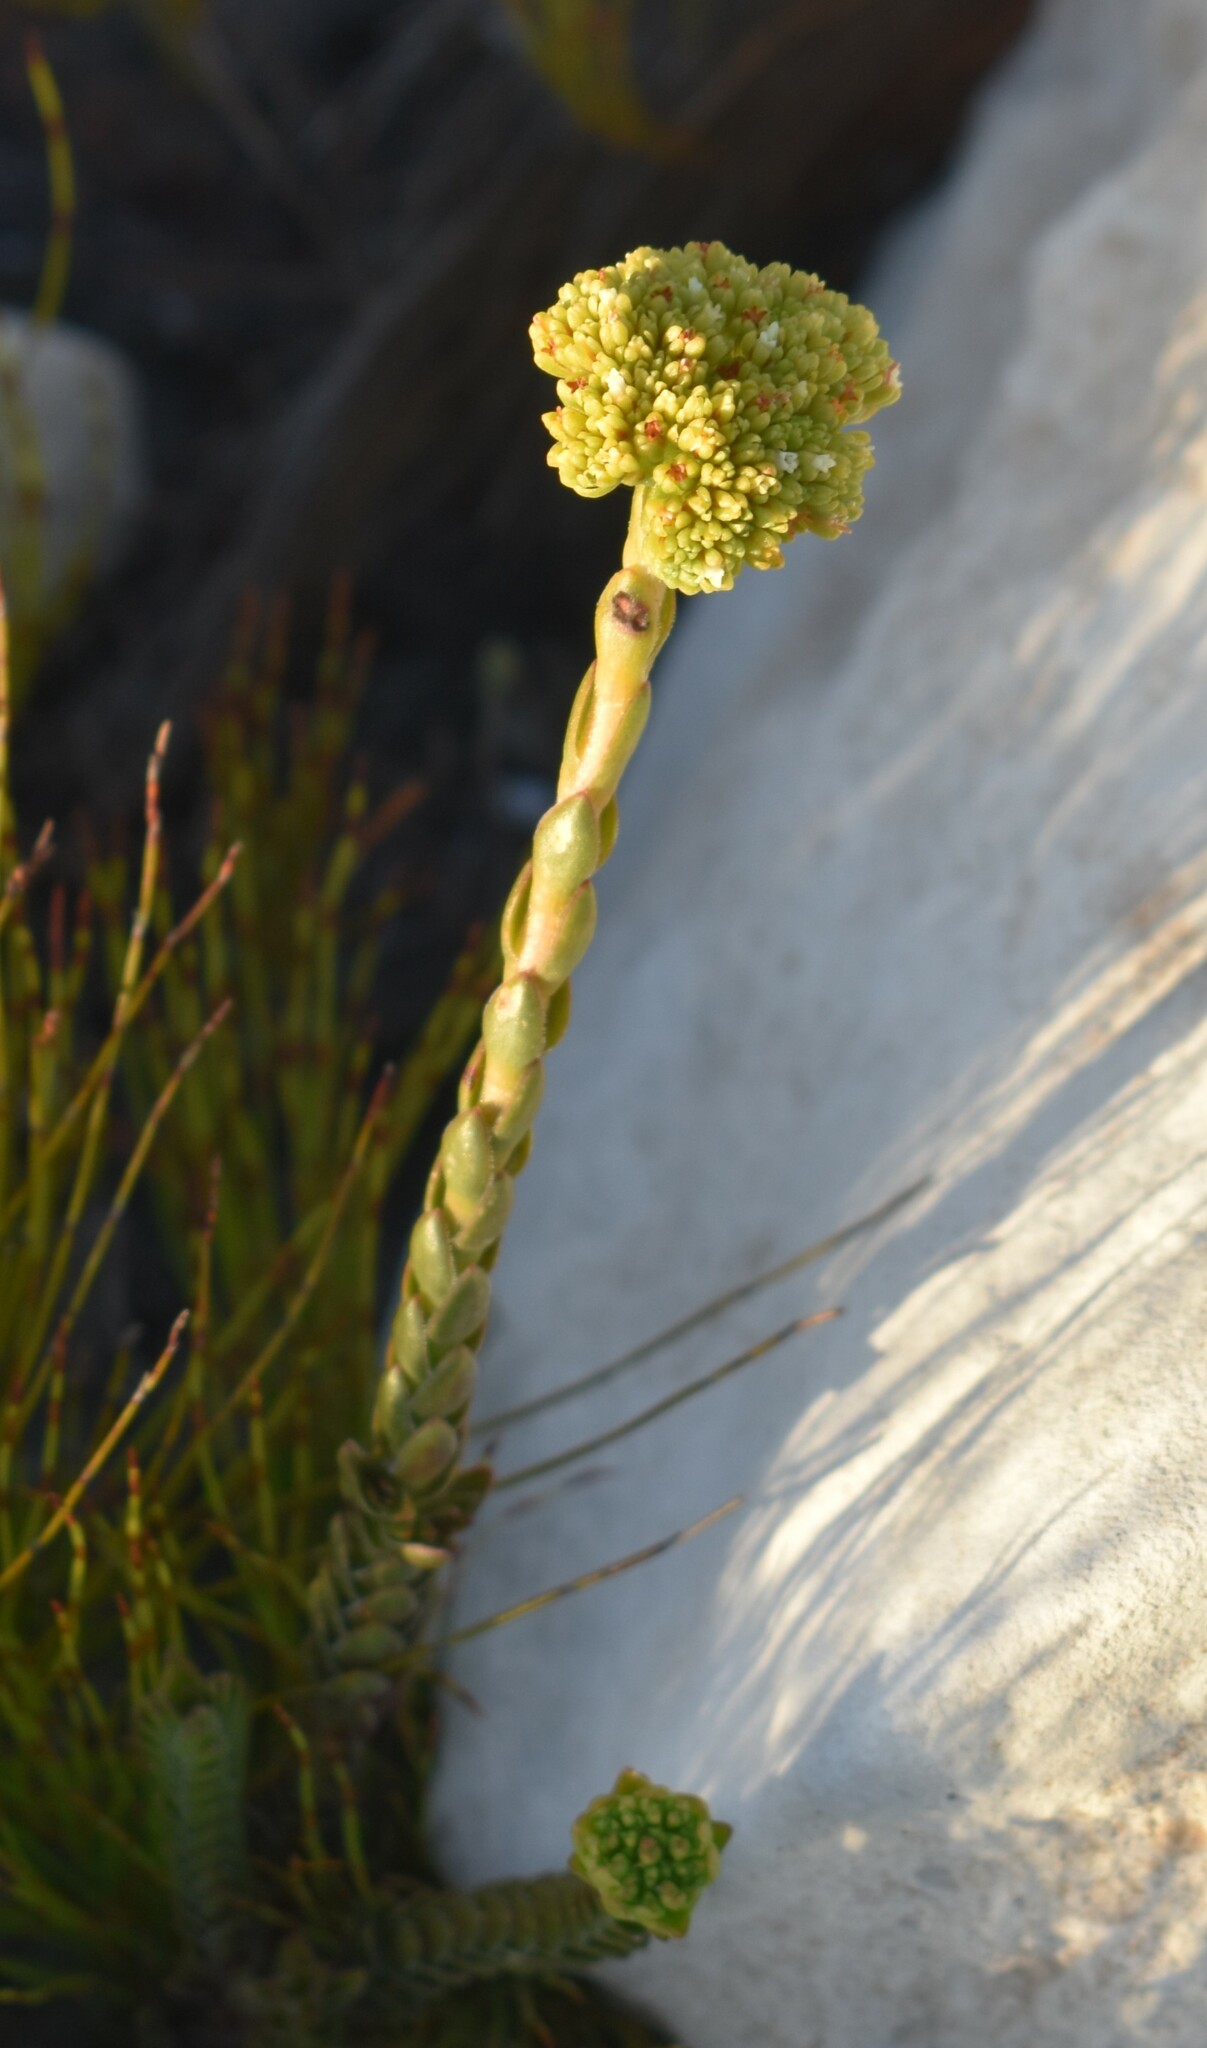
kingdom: Plantae
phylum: Tracheophyta
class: Magnoliopsida
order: Saxifragales
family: Crassulaceae
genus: Crassula
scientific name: Crassula subulata
